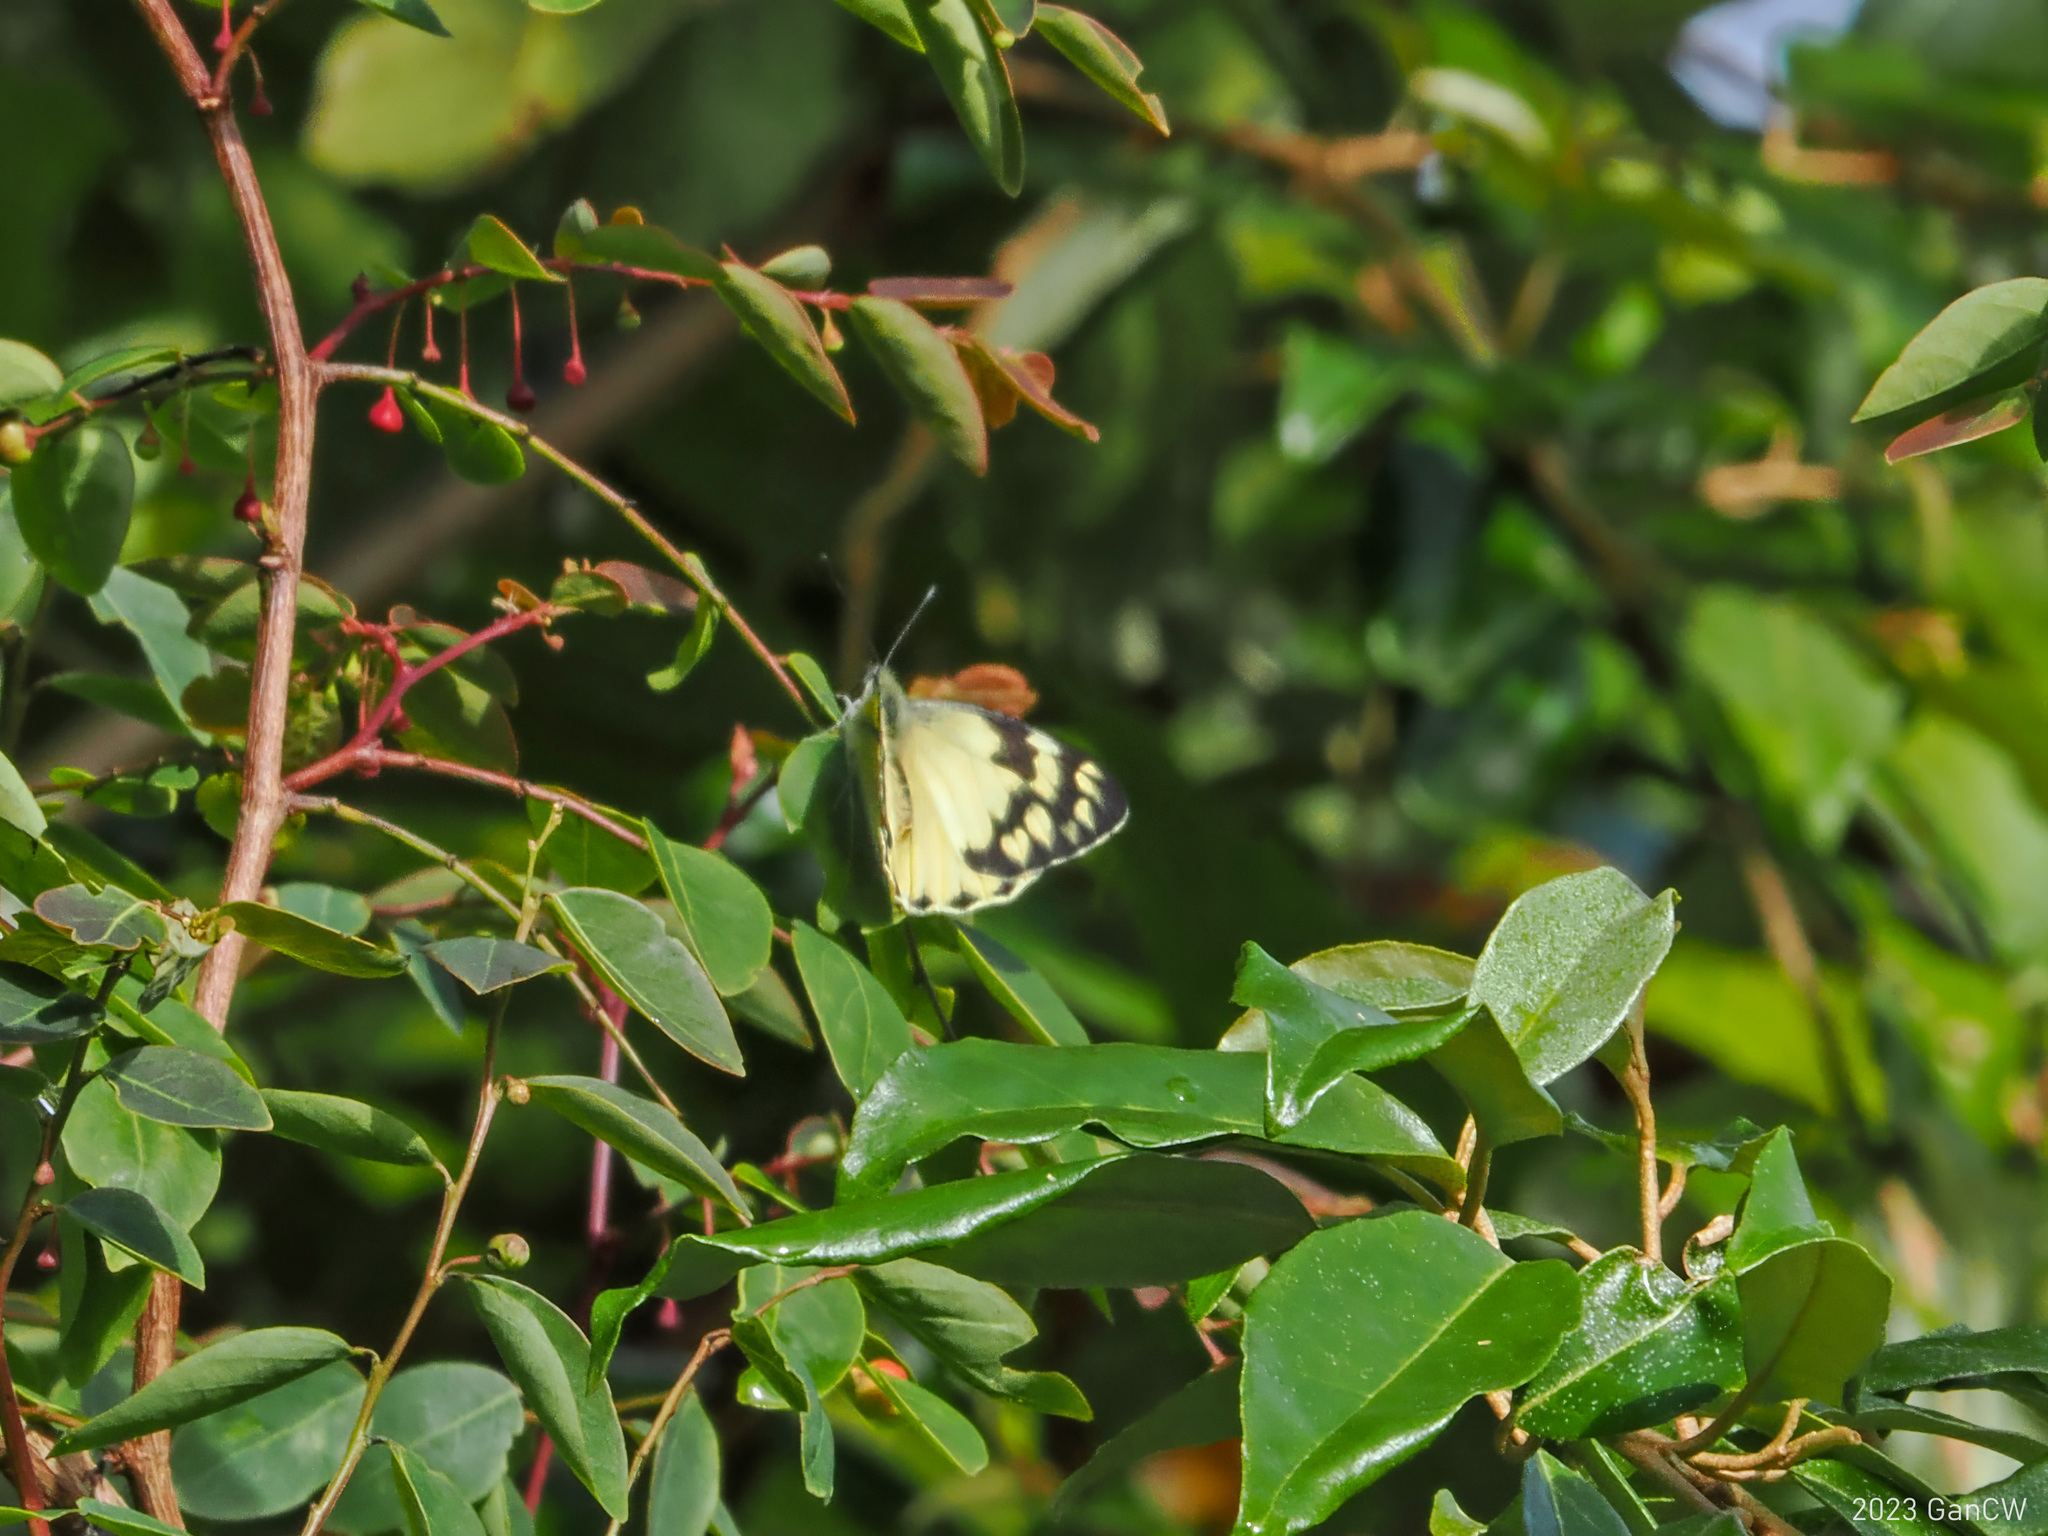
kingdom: Animalia
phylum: Arthropoda
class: Insecta
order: Lepidoptera
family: Pieridae
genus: Delias
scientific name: Delias battana
